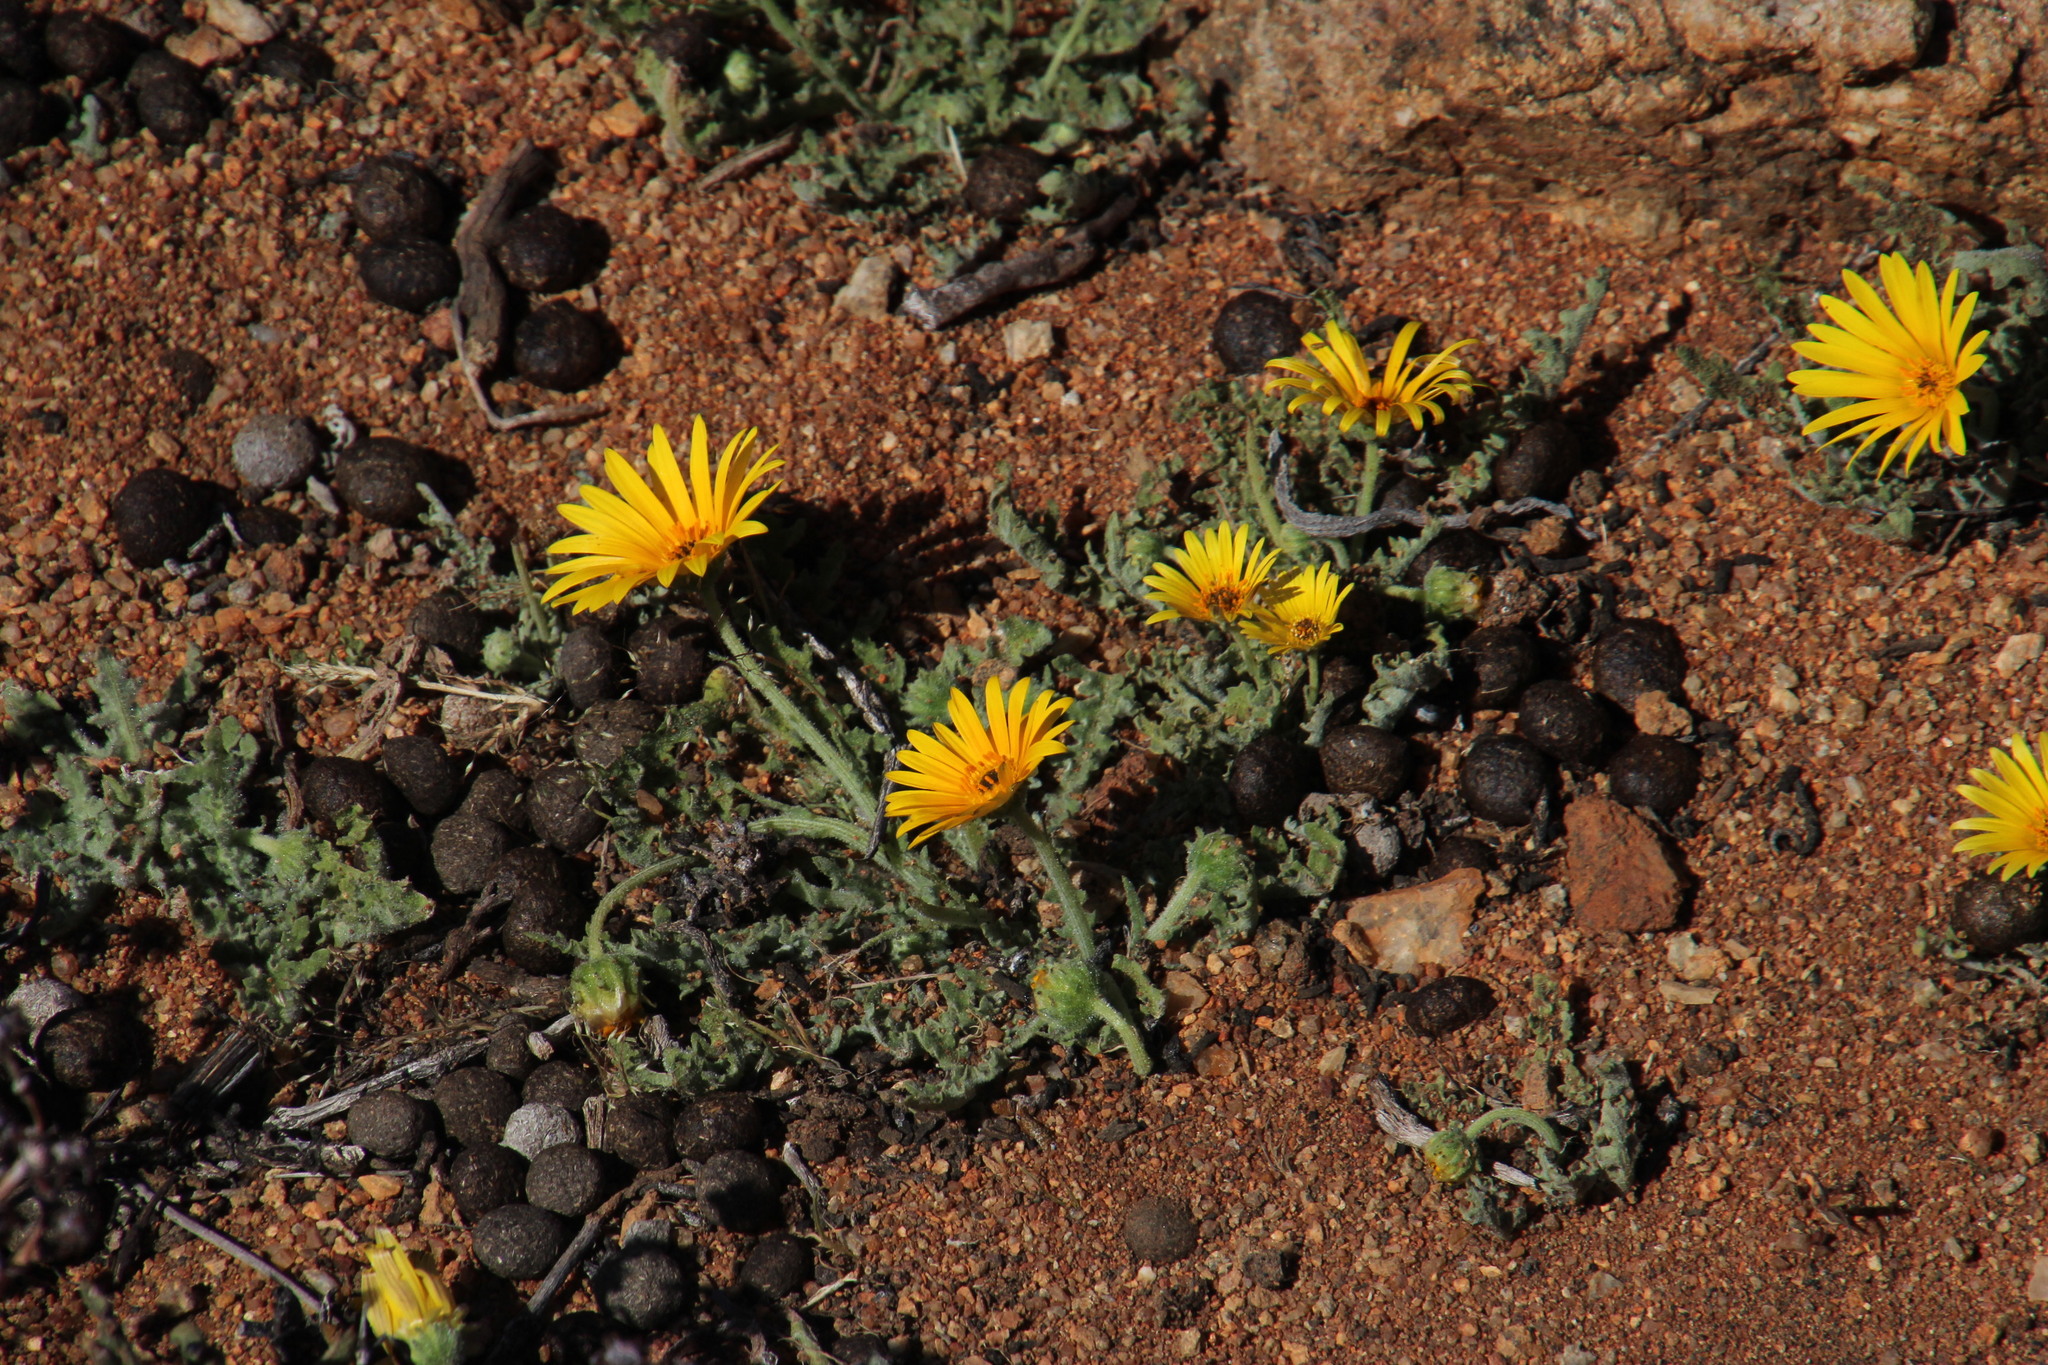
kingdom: Animalia
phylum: Chordata
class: Mammalia
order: Lagomorpha
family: Leporidae
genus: Pronolagus
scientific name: Pronolagus rupestris
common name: Smith's red rock hare
